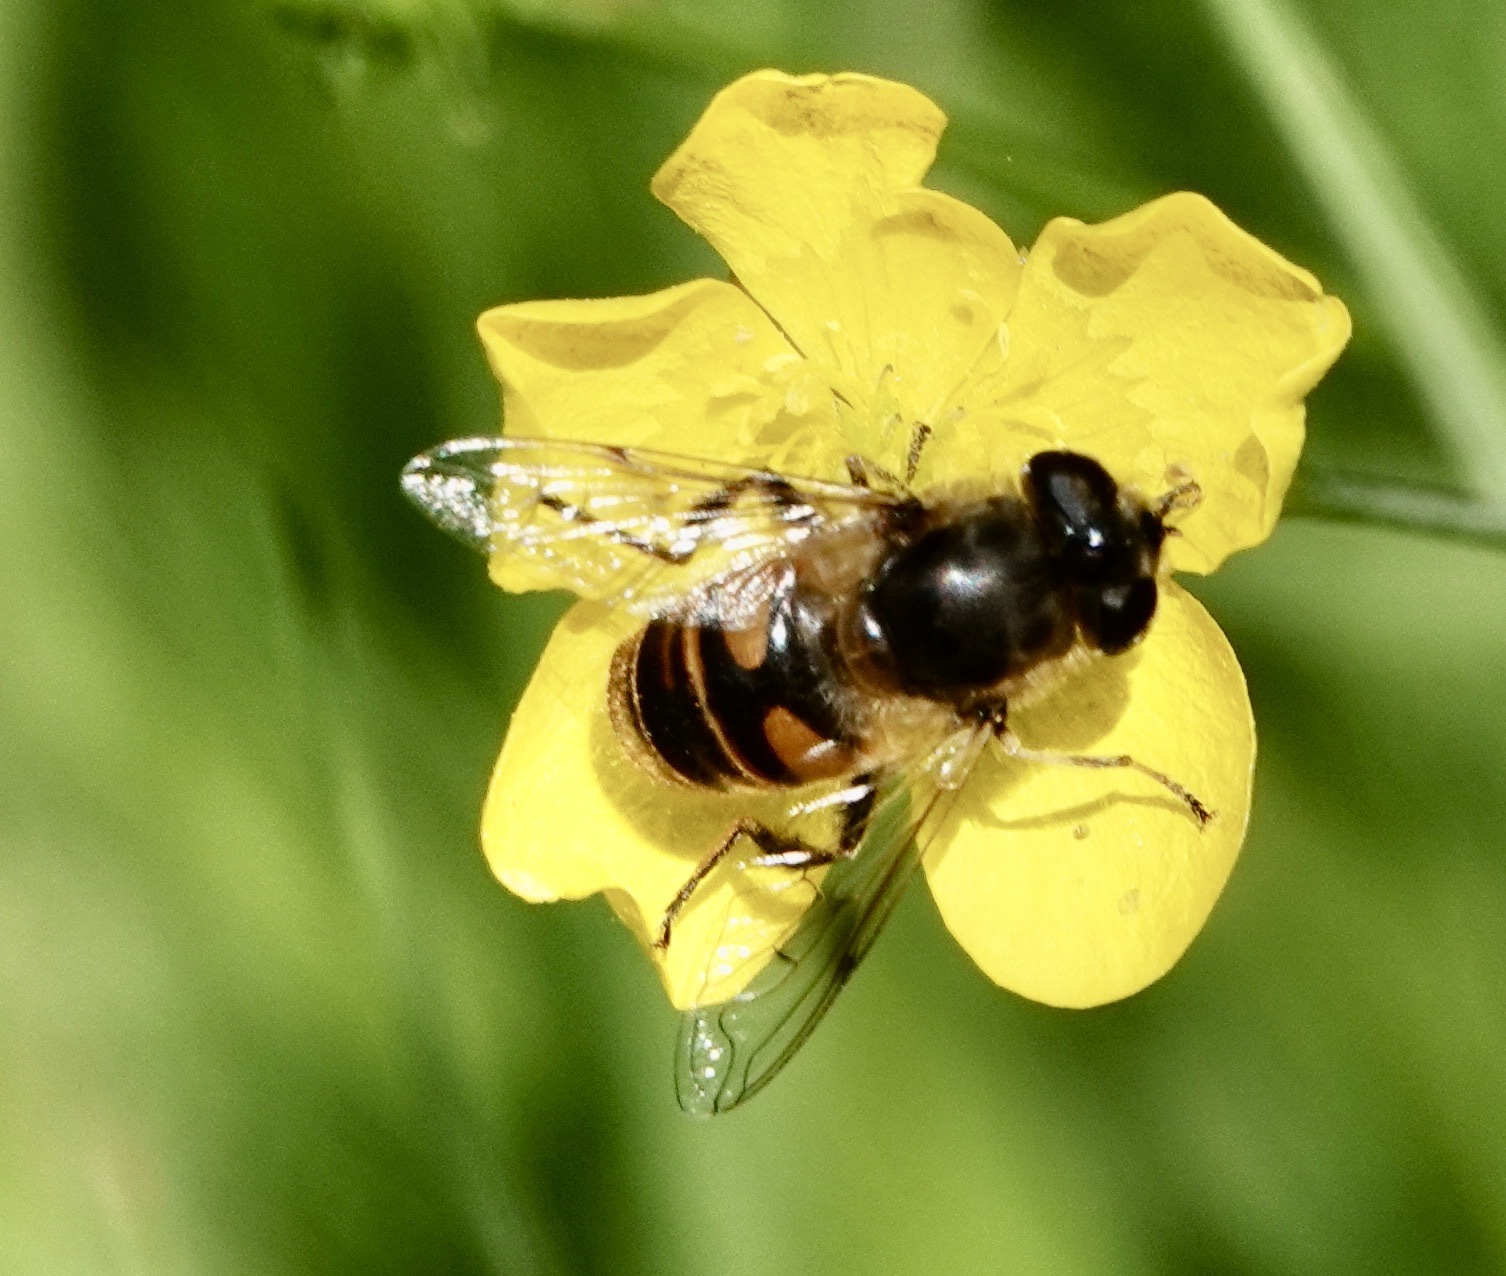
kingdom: Animalia
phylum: Arthropoda
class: Insecta
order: Diptera
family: Syrphidae
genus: Eristalis
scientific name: Eristalis tenax
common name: Drone fly
